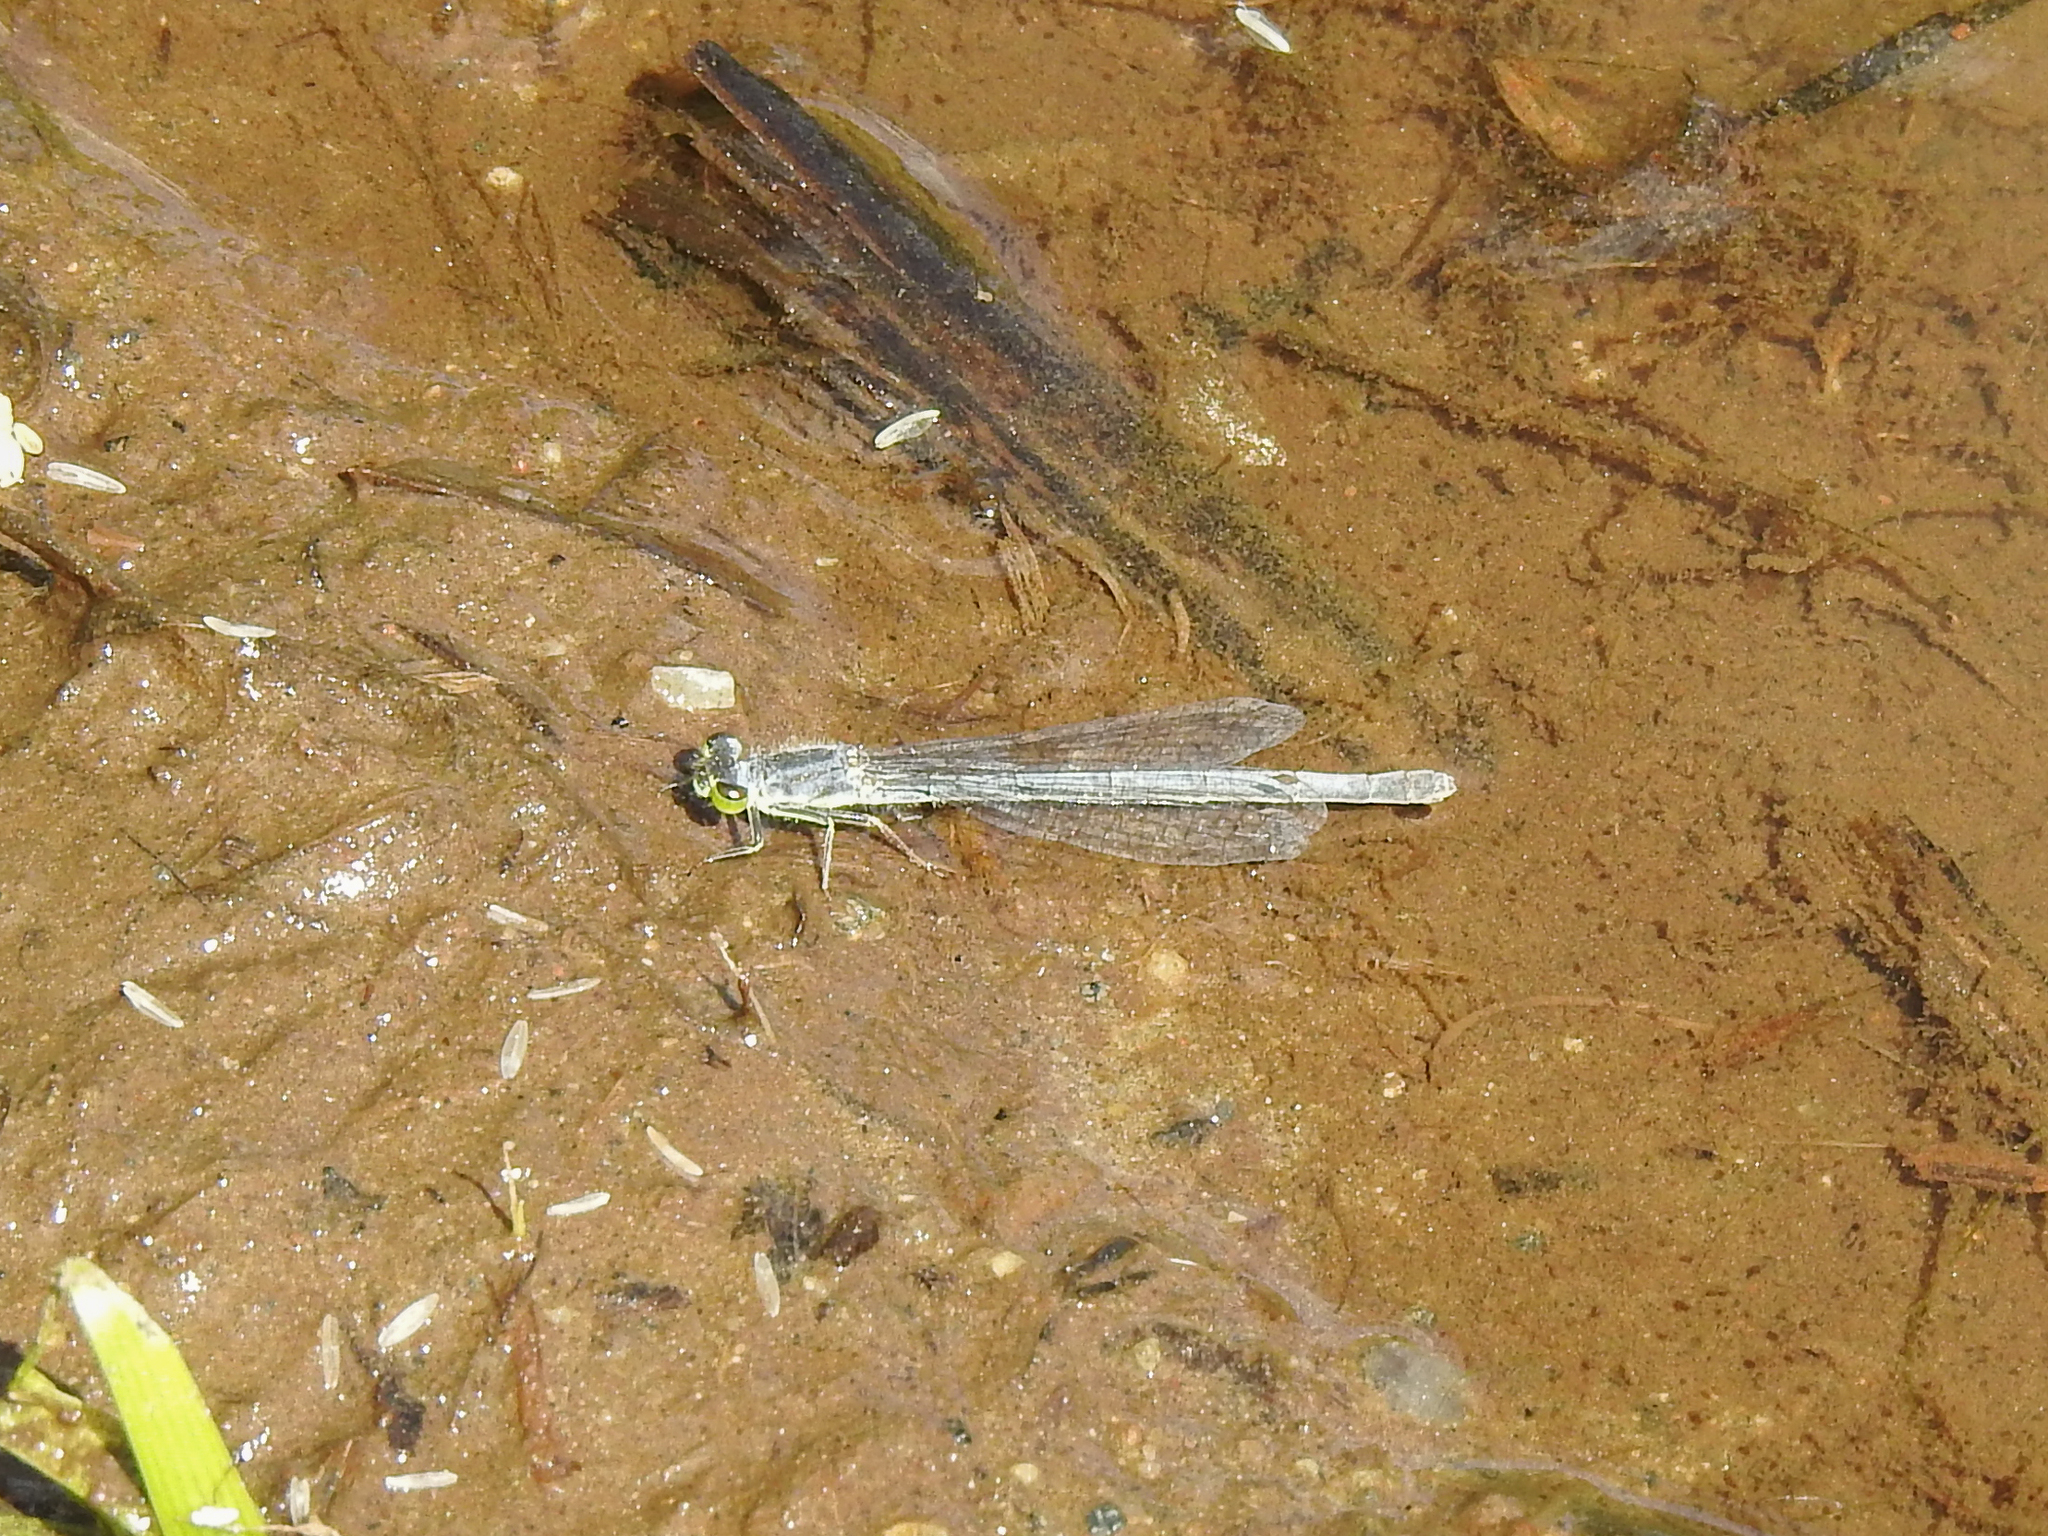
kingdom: Animalia
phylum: Arthropoda
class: Insecta
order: Odonata
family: Coenagrionidae
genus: Ischnura
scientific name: Ischnura verticalis
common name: Eastern forktail
